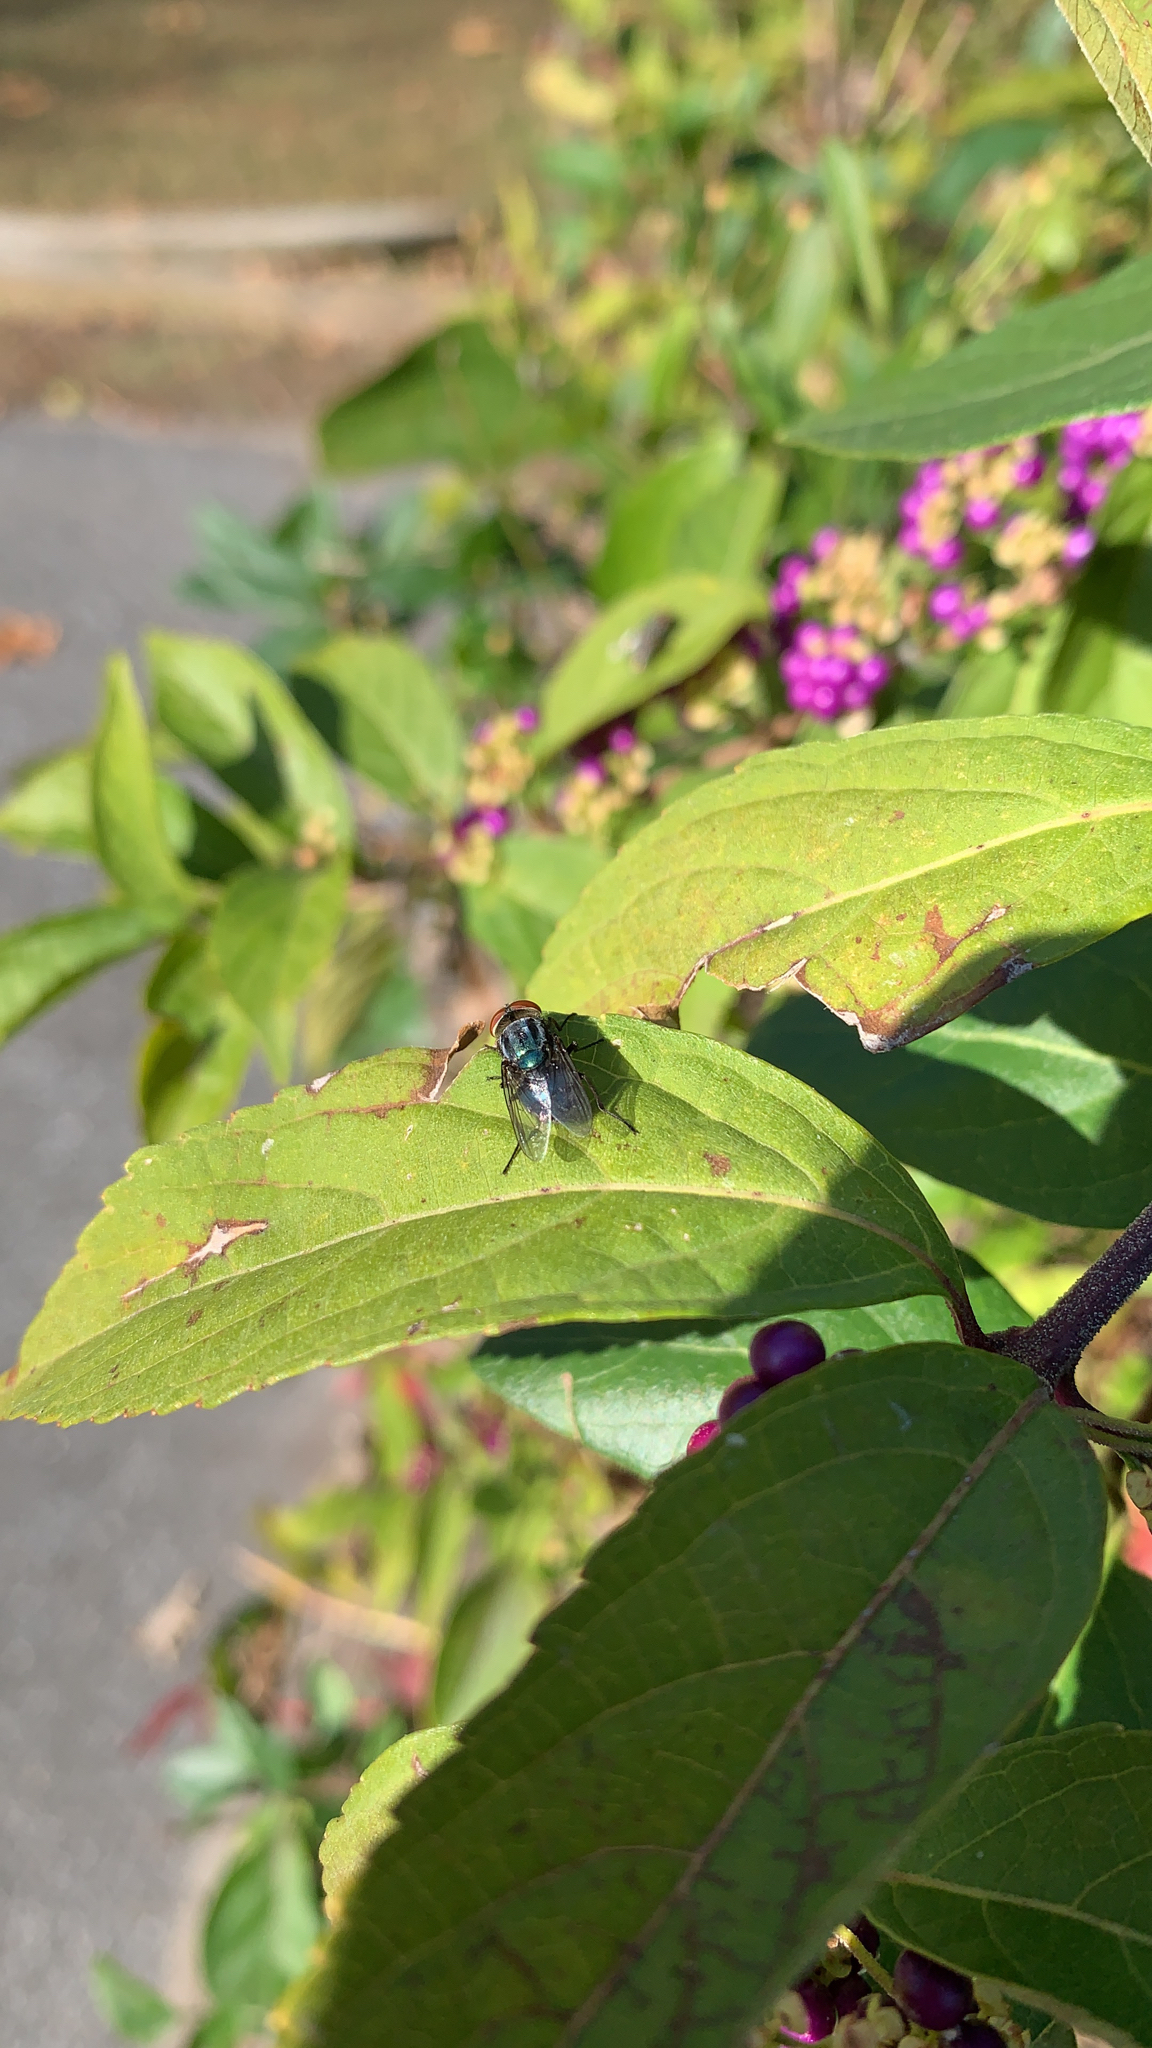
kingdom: Animalia
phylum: Arthropoda
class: Insecta
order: Diptera
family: Calliphoridae
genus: Cochliomyia
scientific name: Cochliomyia macellaria
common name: Secondary screwworm
